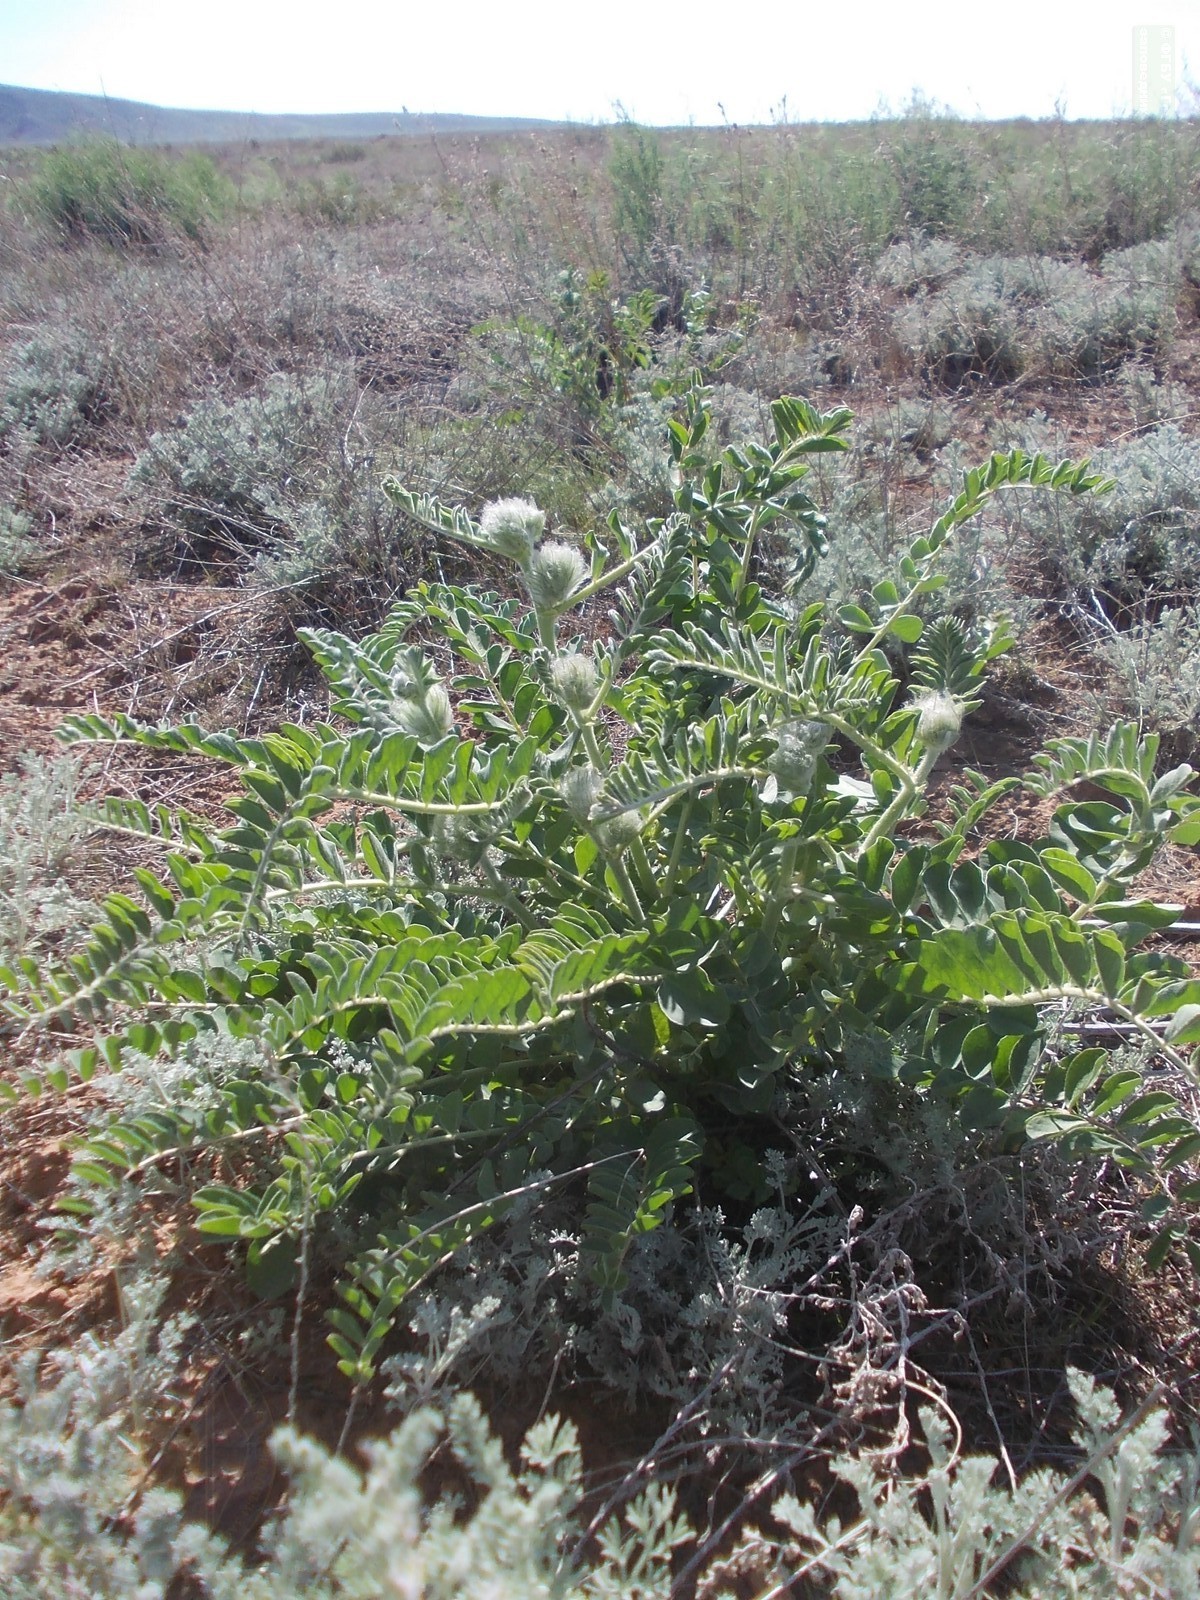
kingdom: Plantae
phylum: Tracheophyta
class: Magnoliopsida
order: Fabales
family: Fabaceae
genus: Astragalus
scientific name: Astragalus vulpinus
